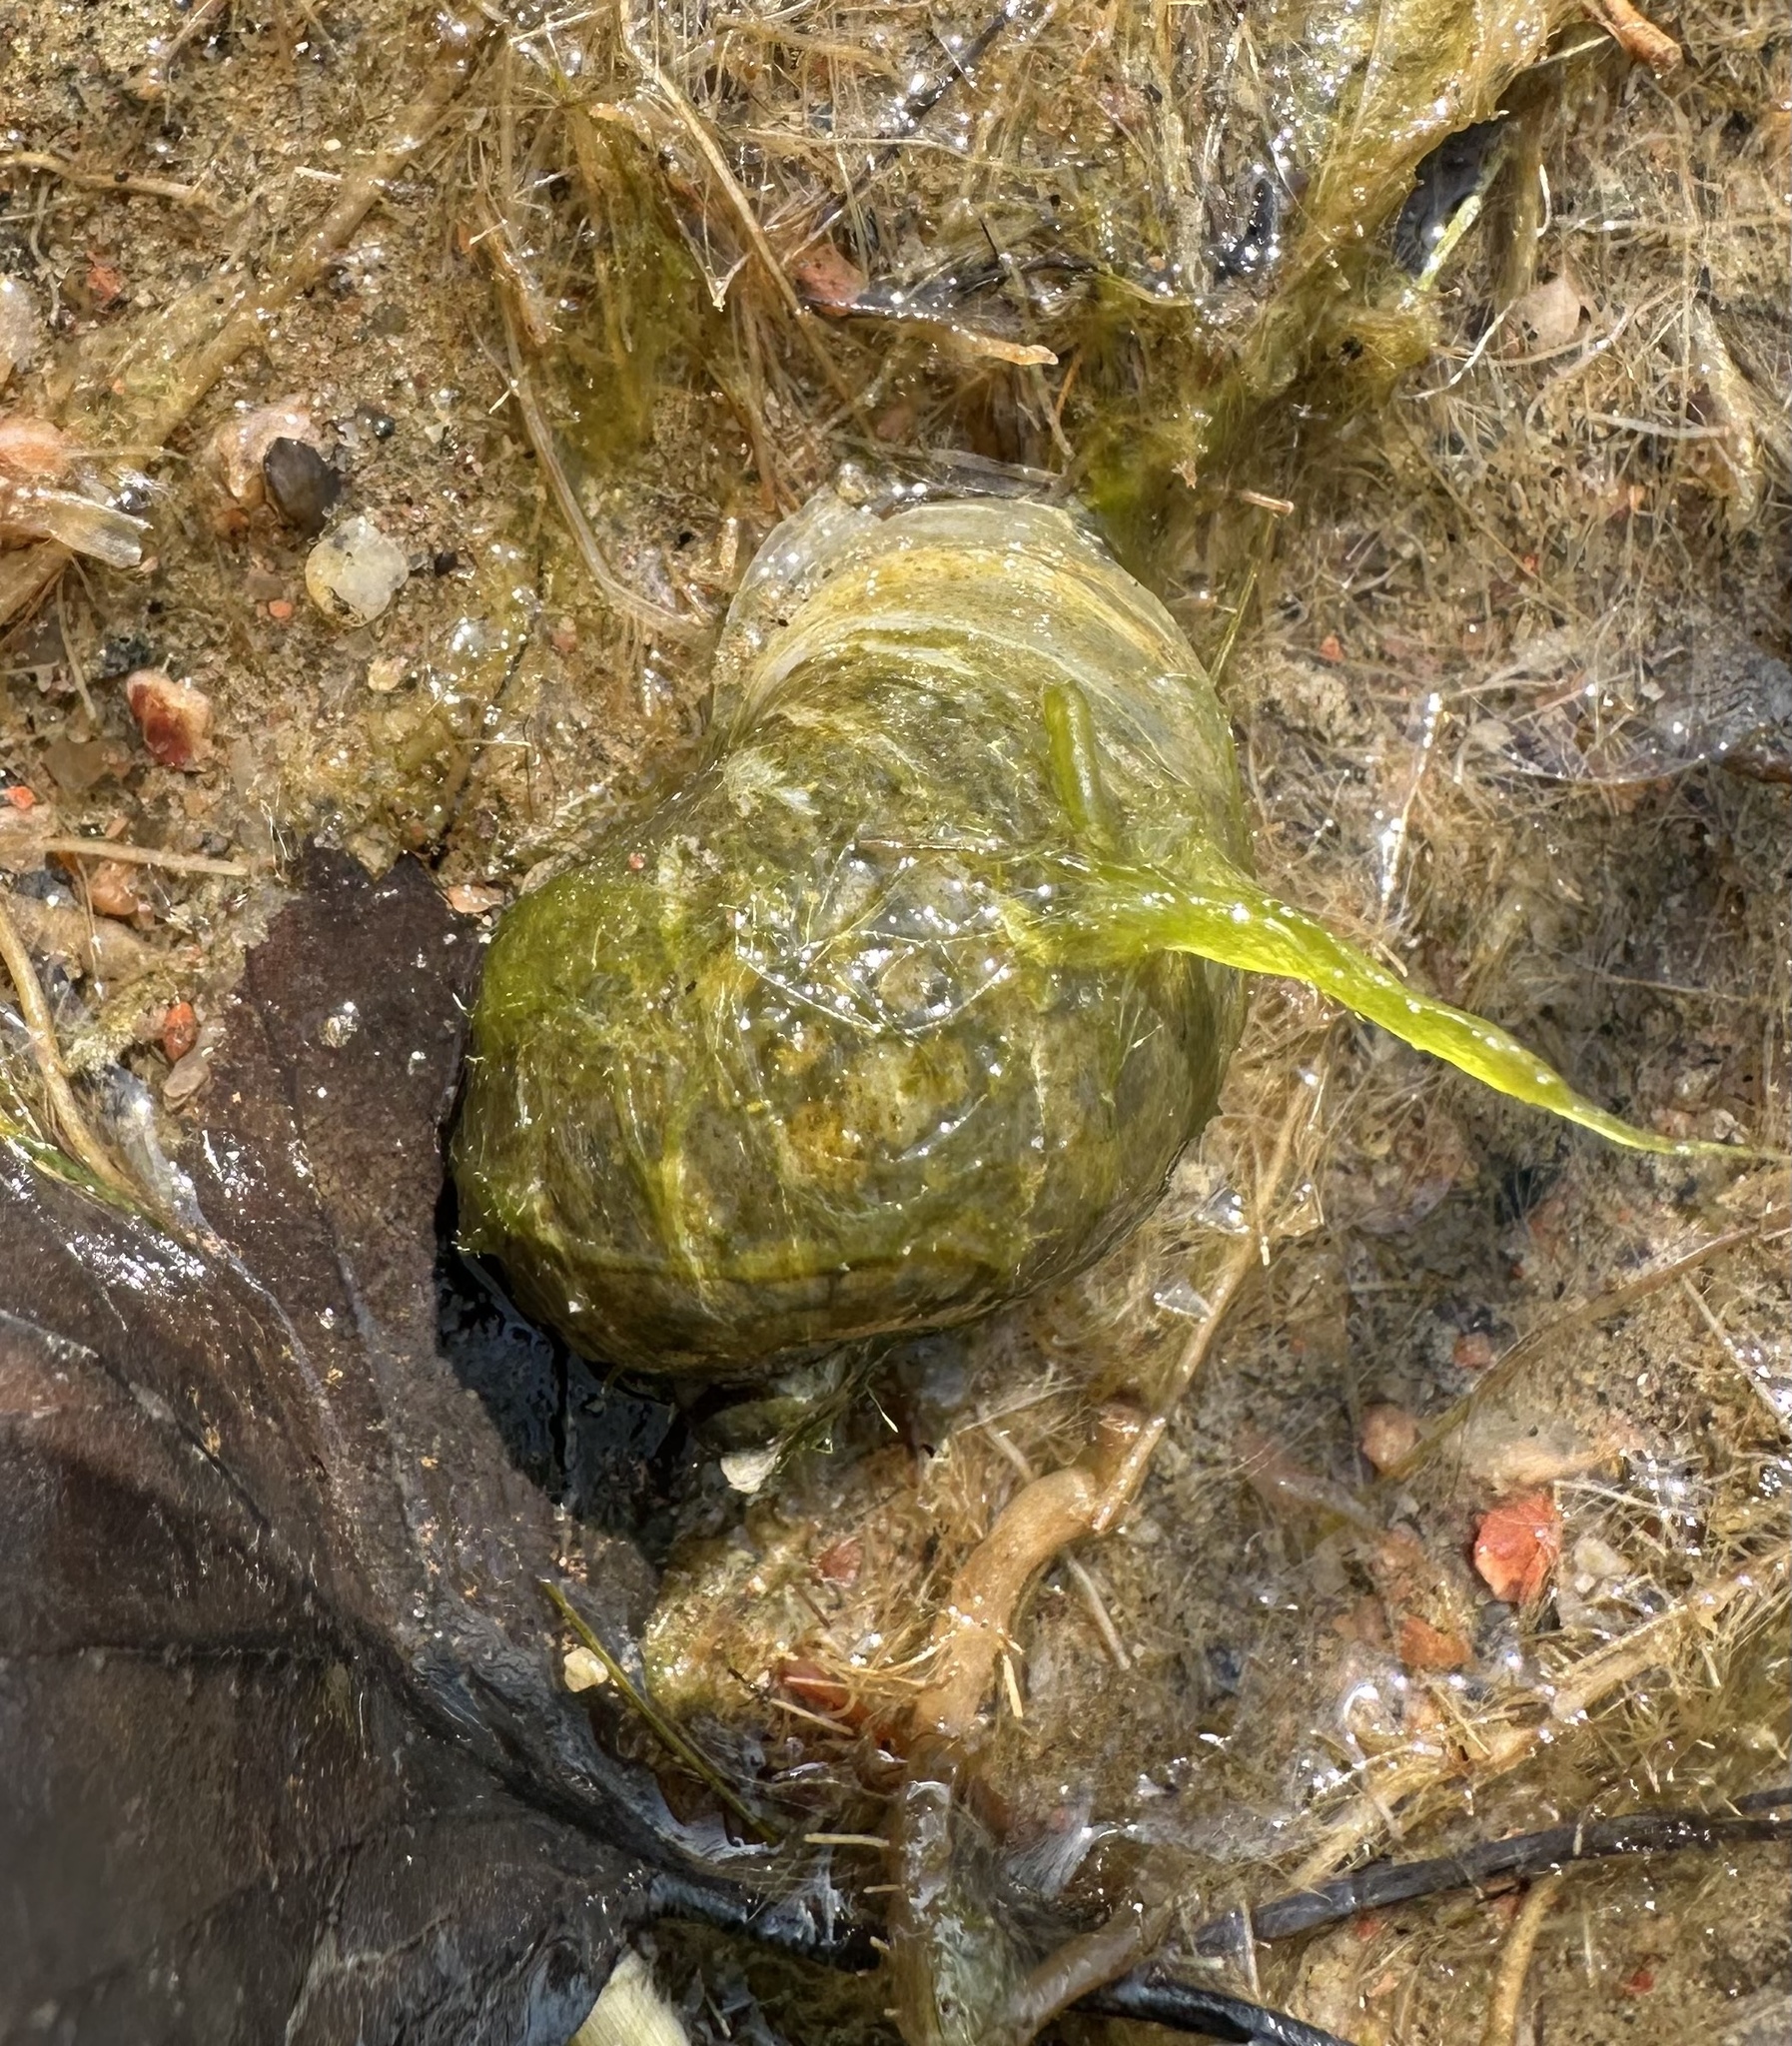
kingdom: Animalia
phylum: Mollusca
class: Gastropoda
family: Lymnaeidae
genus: Radix
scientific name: Radix auricularia
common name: Ear pond snail
